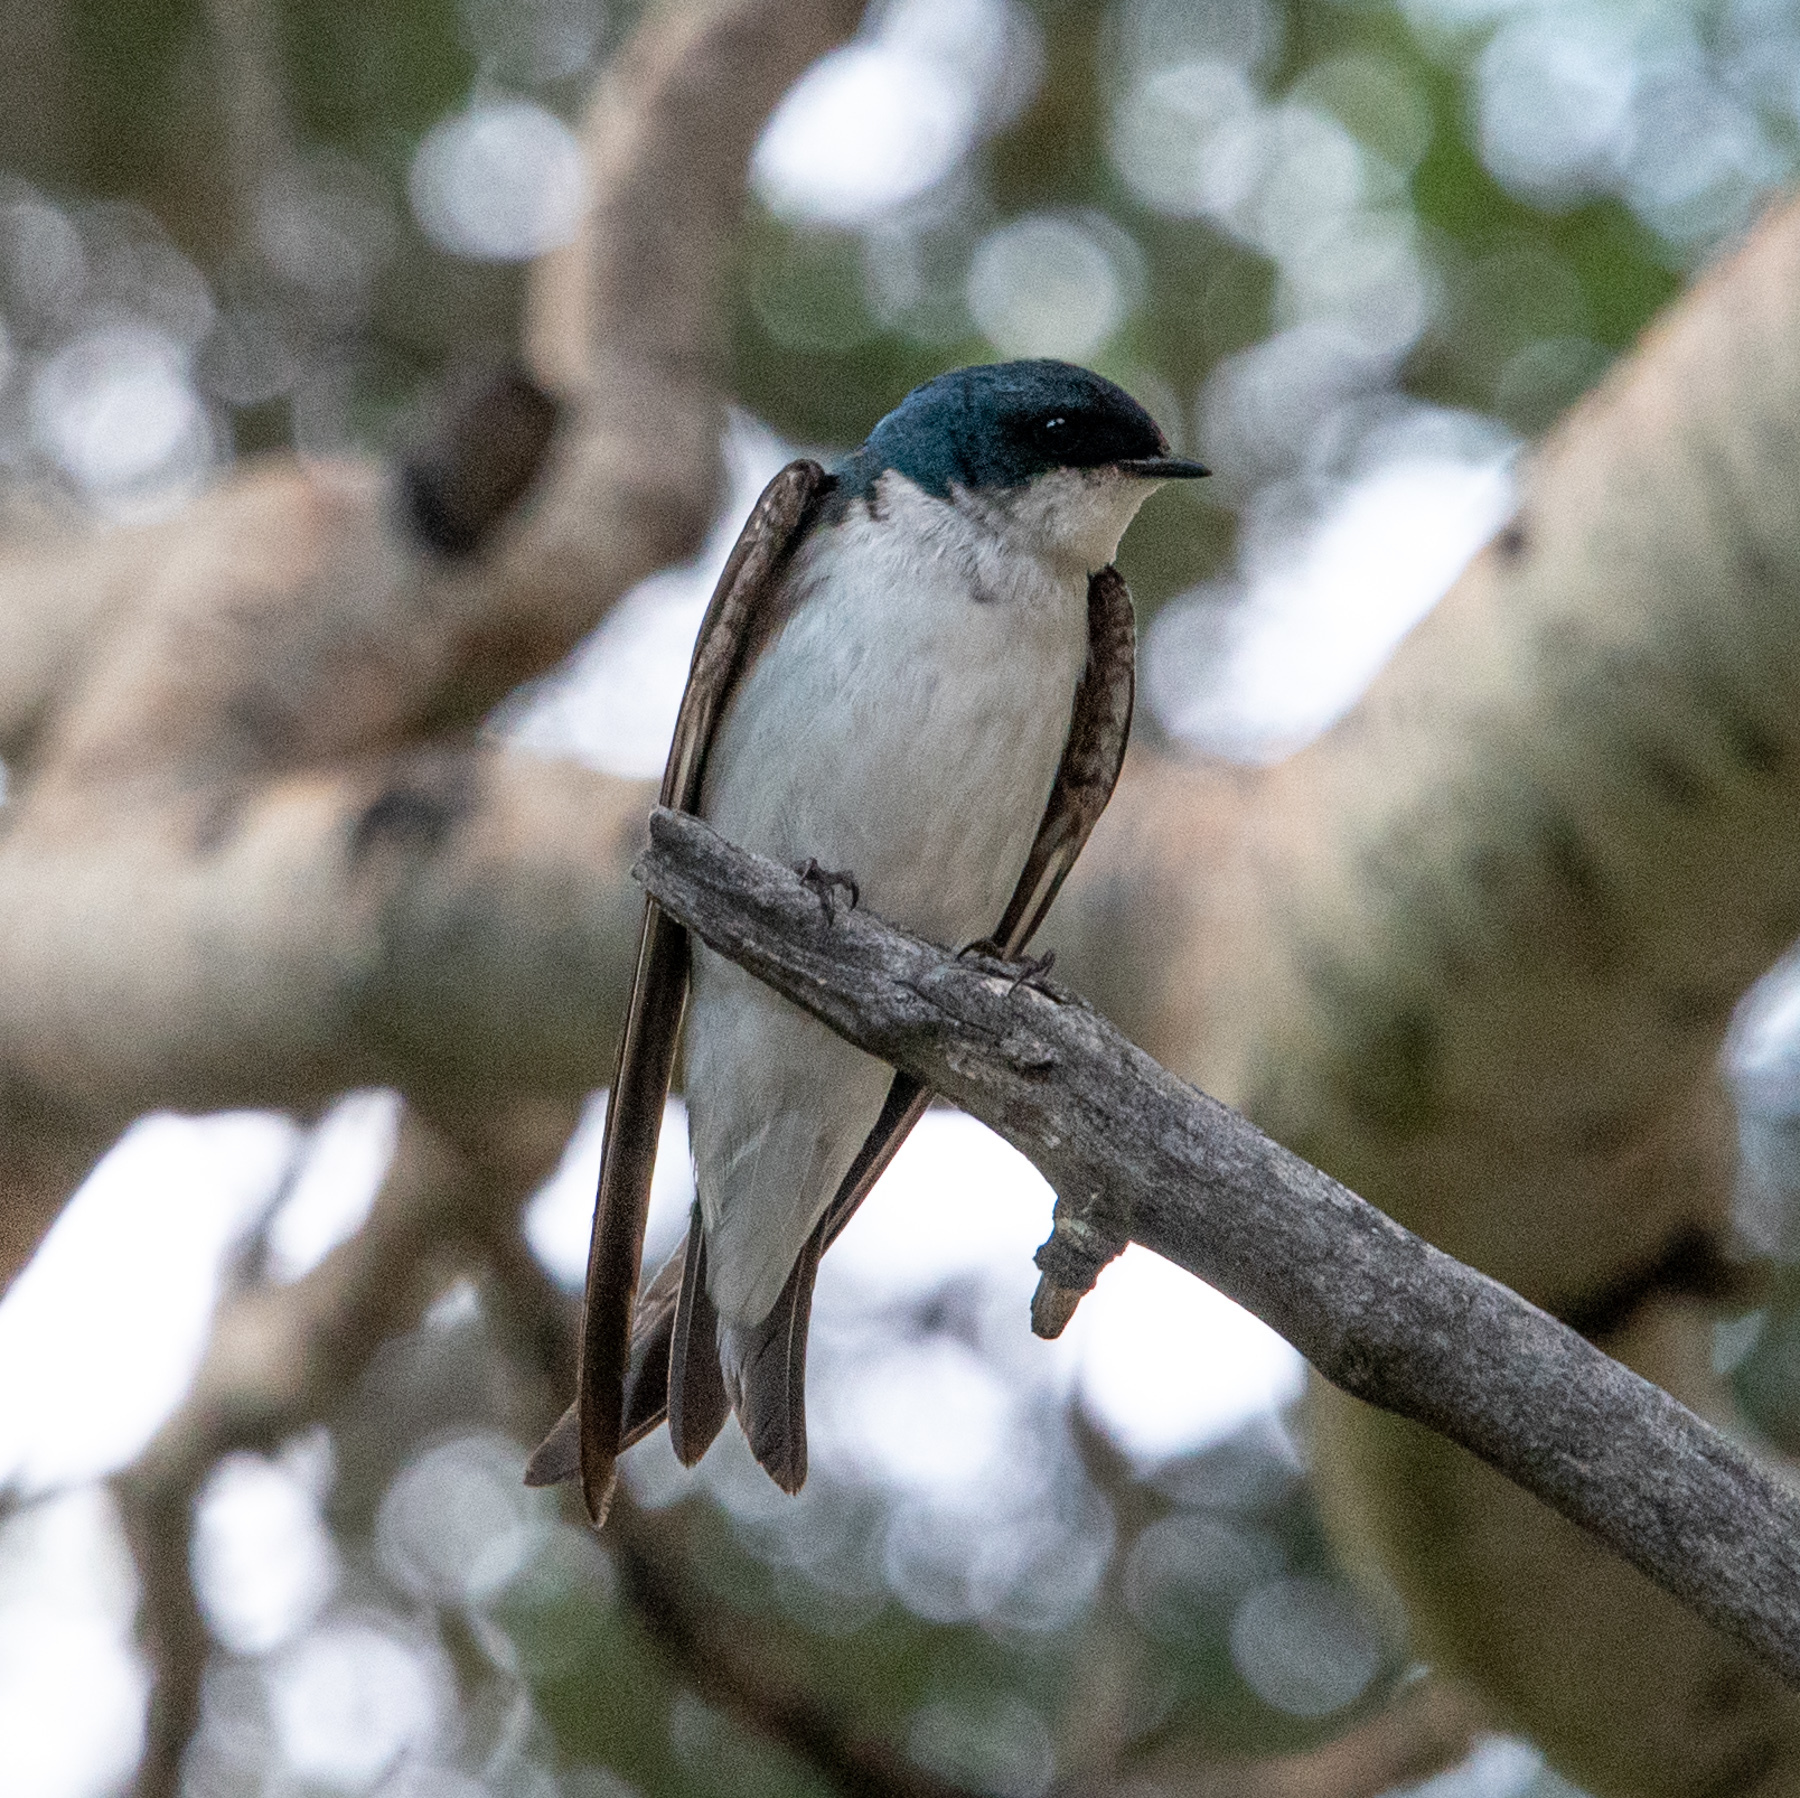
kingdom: Animalia
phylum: Chordata
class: Aves
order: Passeriformes
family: Hirundinidae
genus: Tachycineta
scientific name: Tachycineta bicolor
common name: Tree swallow
